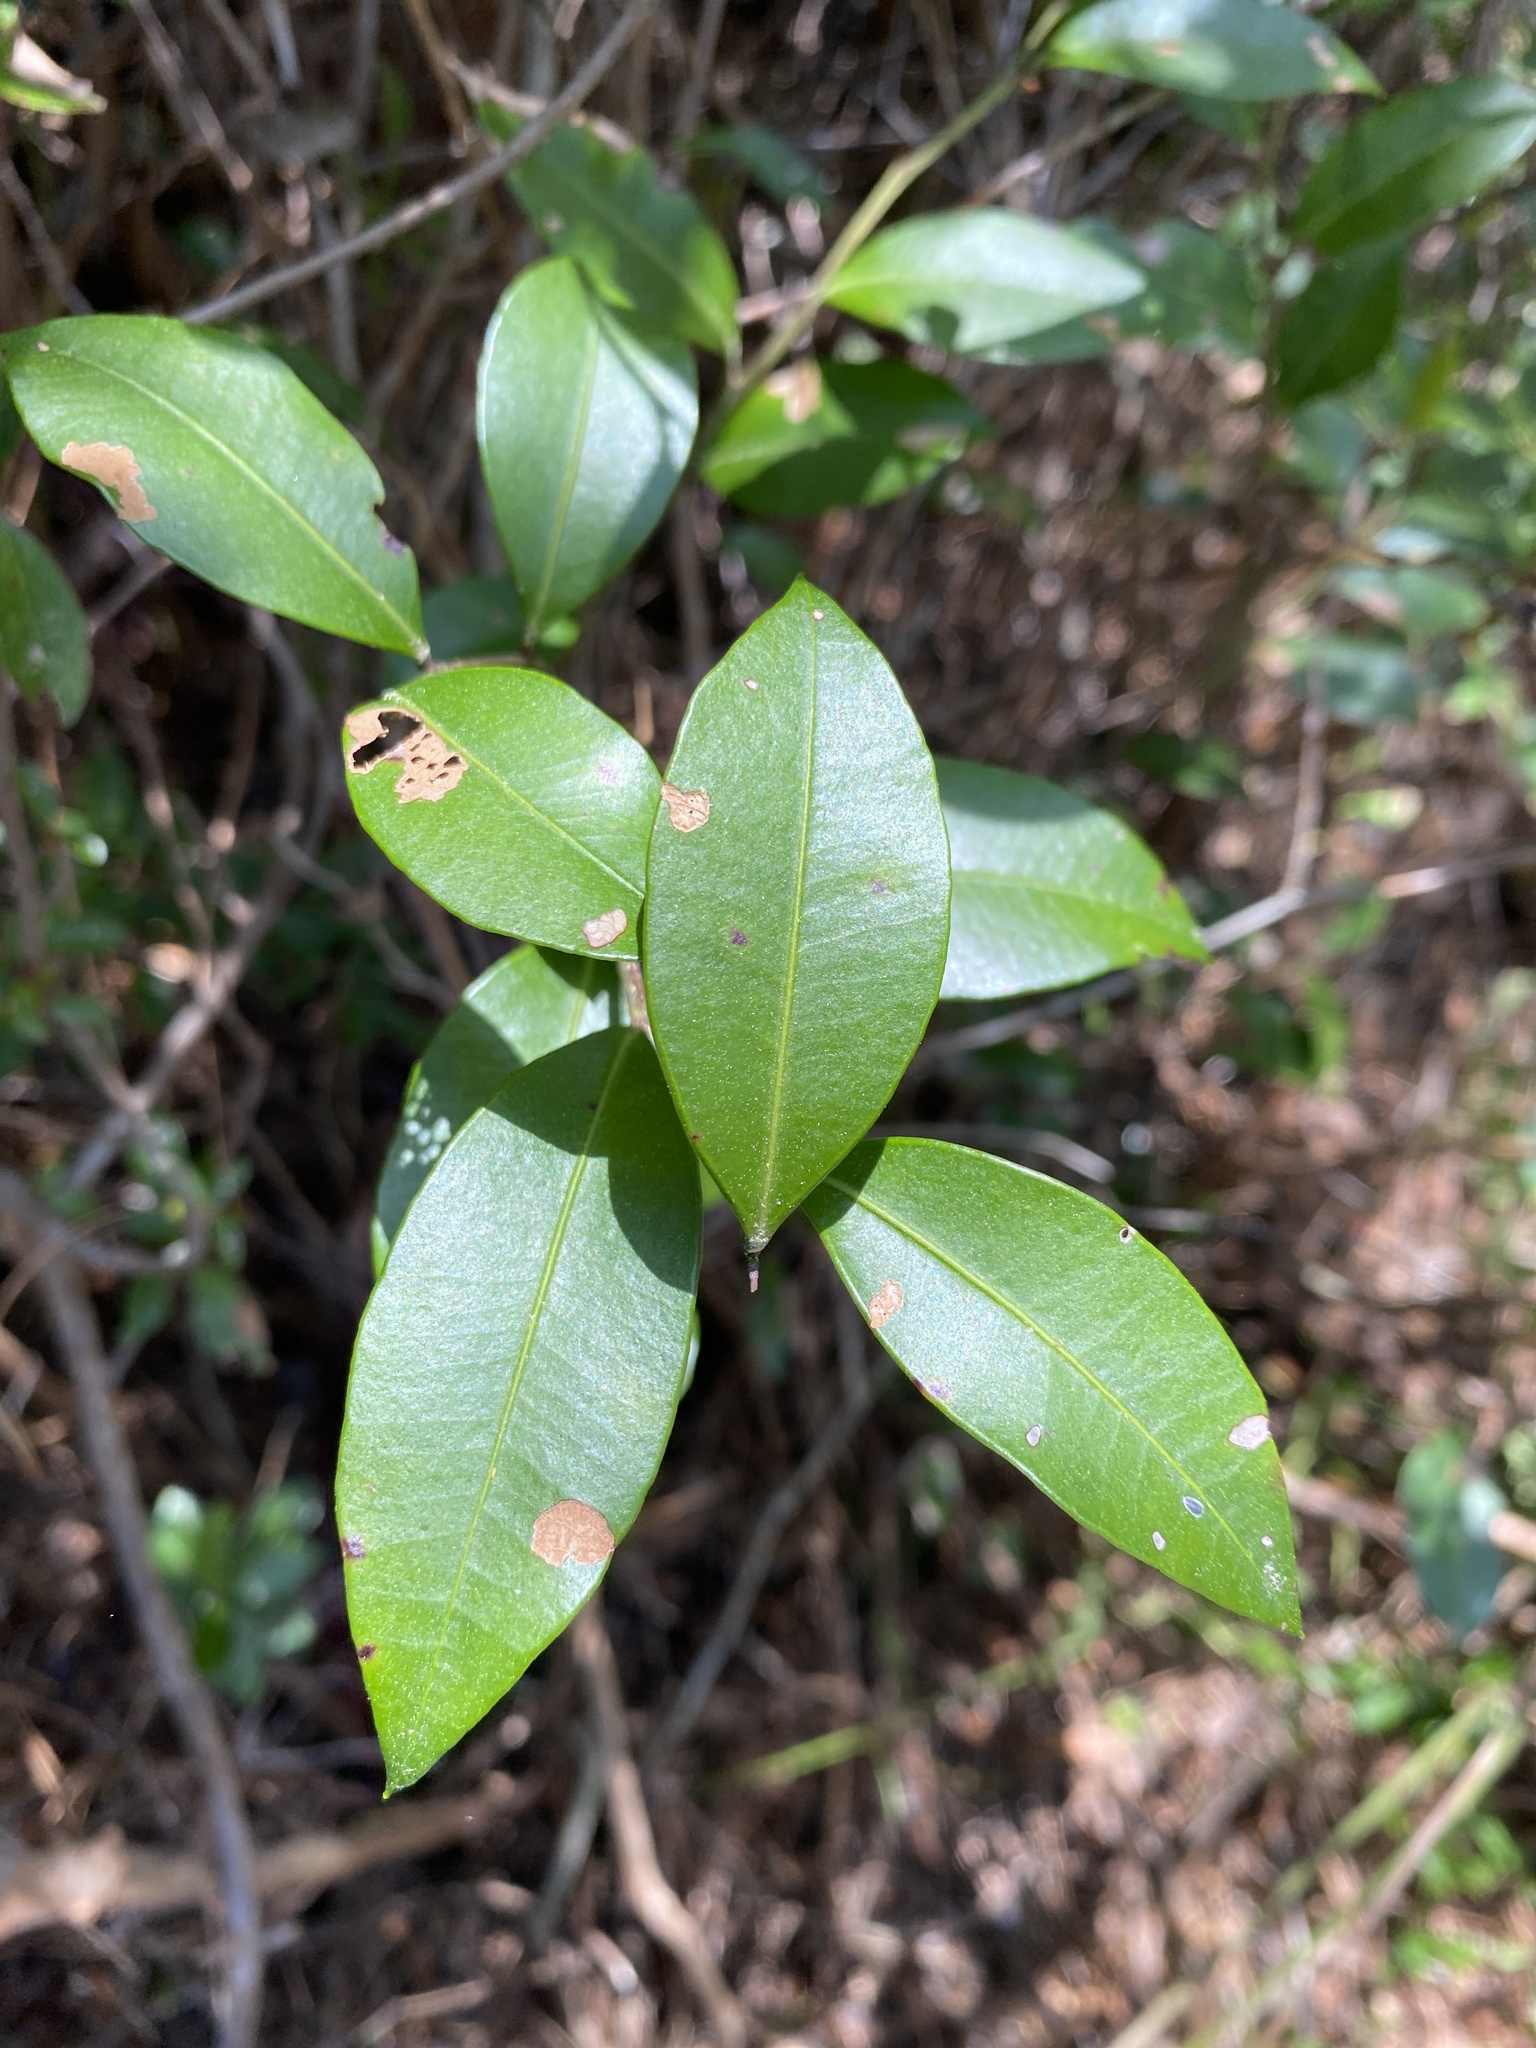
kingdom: Plantae
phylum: Tracheophyta
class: Magnoliopsida
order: Ericales
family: Ericaceae
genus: Lyonia
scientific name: Lyonia lucida
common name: Fetterbush
